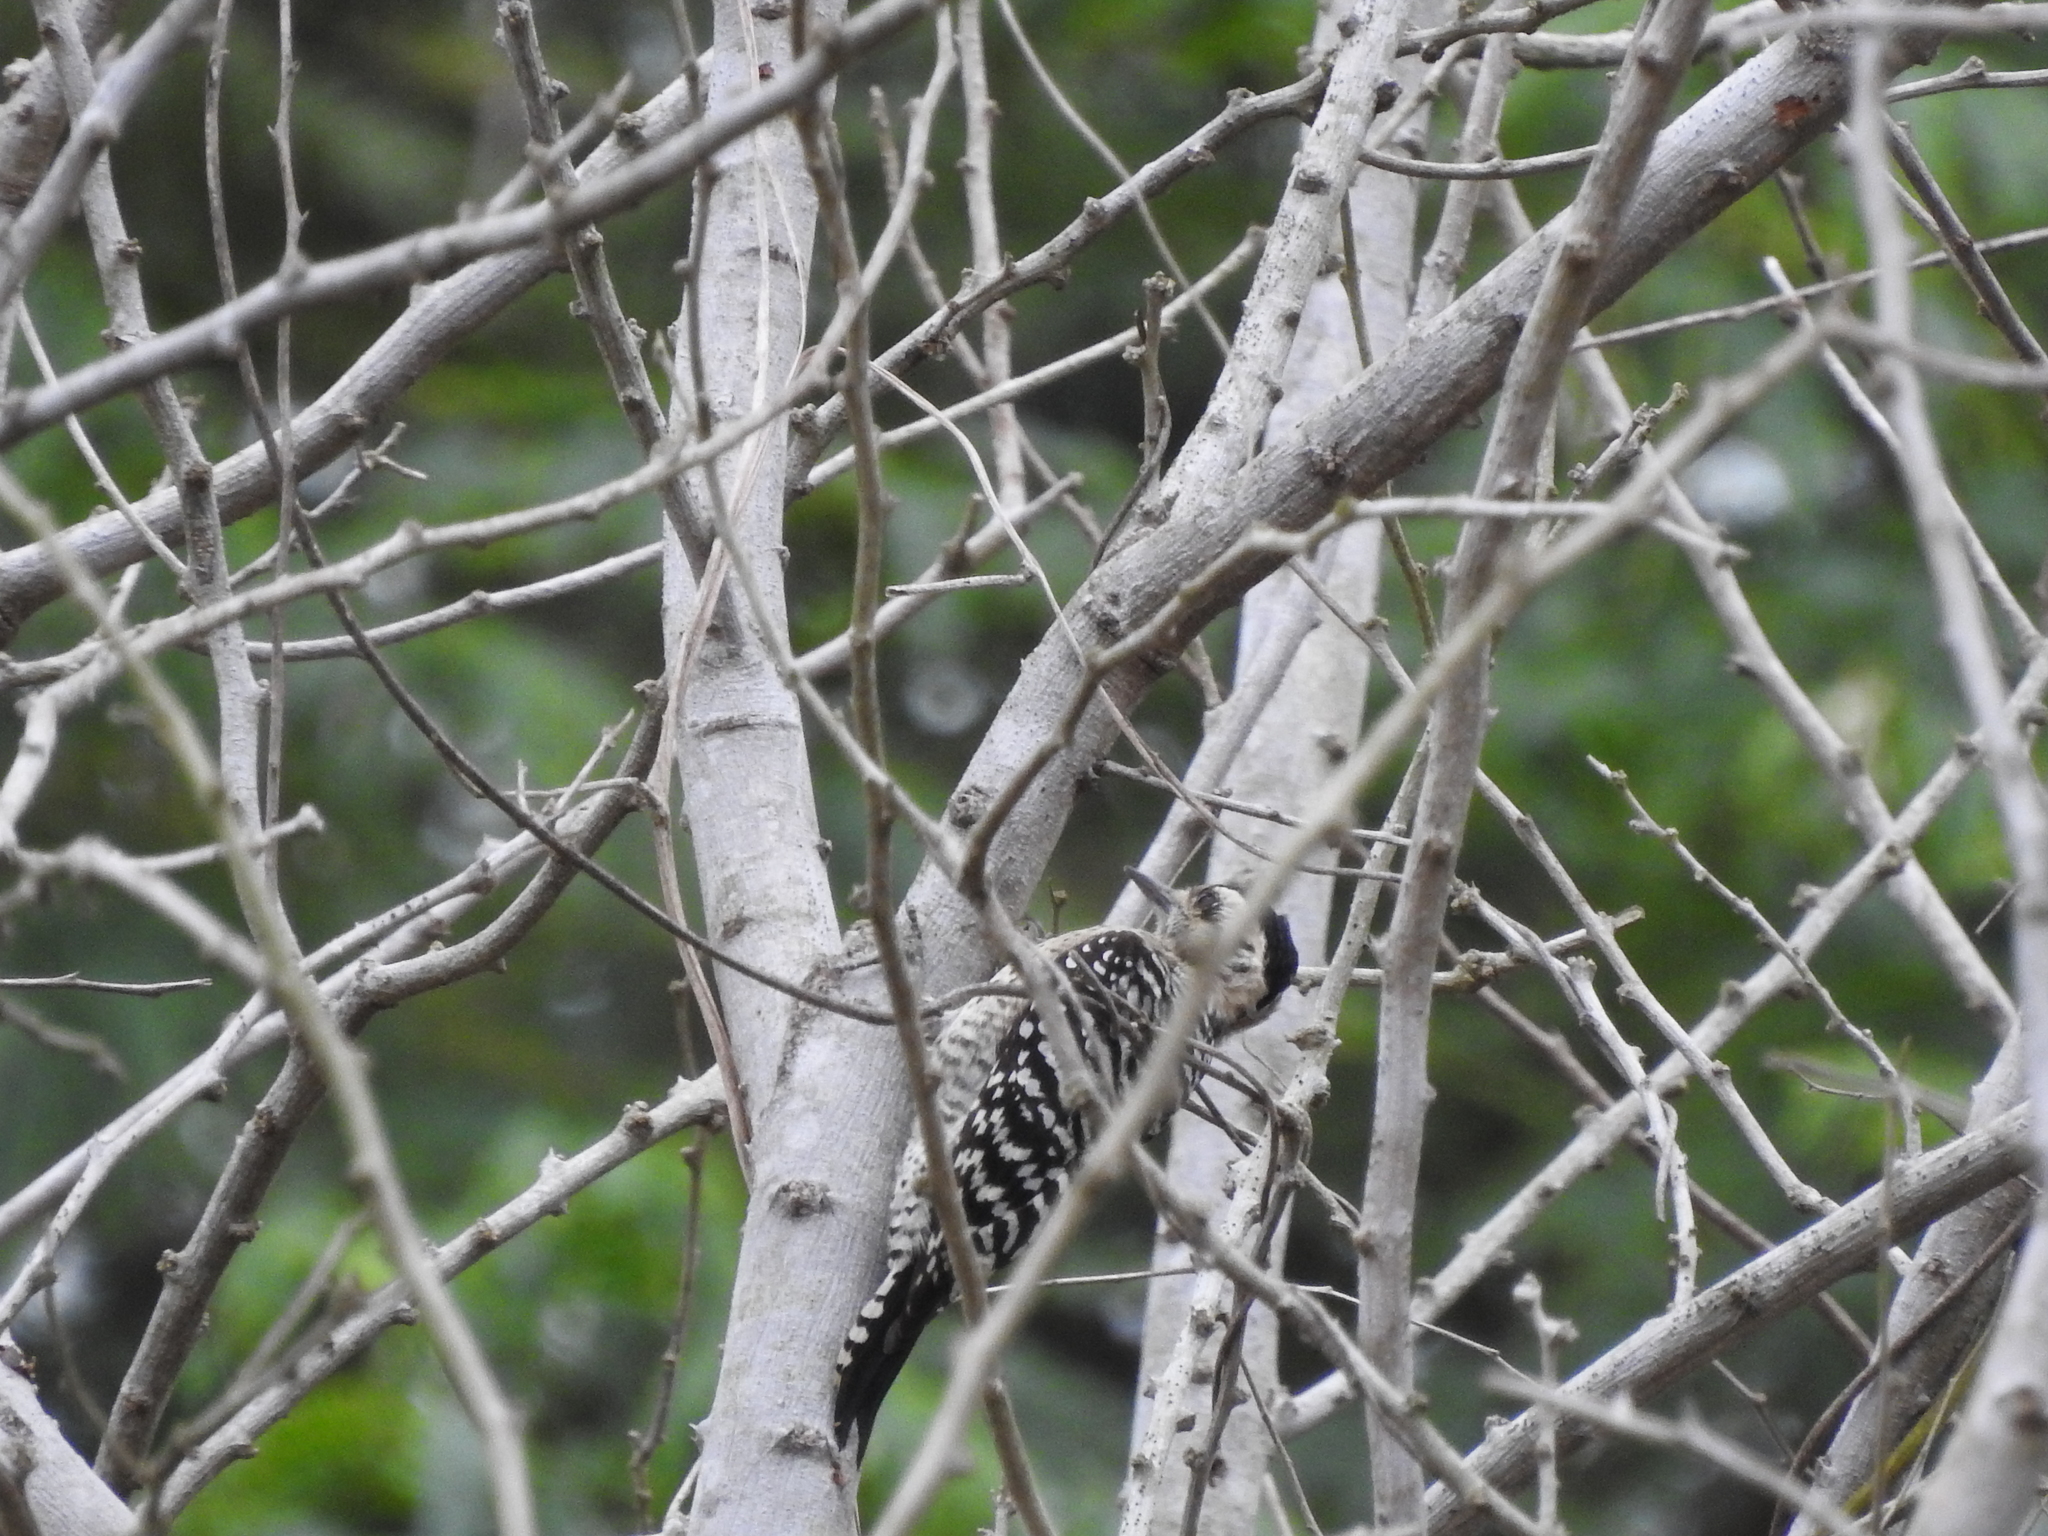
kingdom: Animalia
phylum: Chordata
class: Aves
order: Piciformes
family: Picidae
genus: Dryobates
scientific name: Dryobates scalaris
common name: Ladder-backed woodpecker
